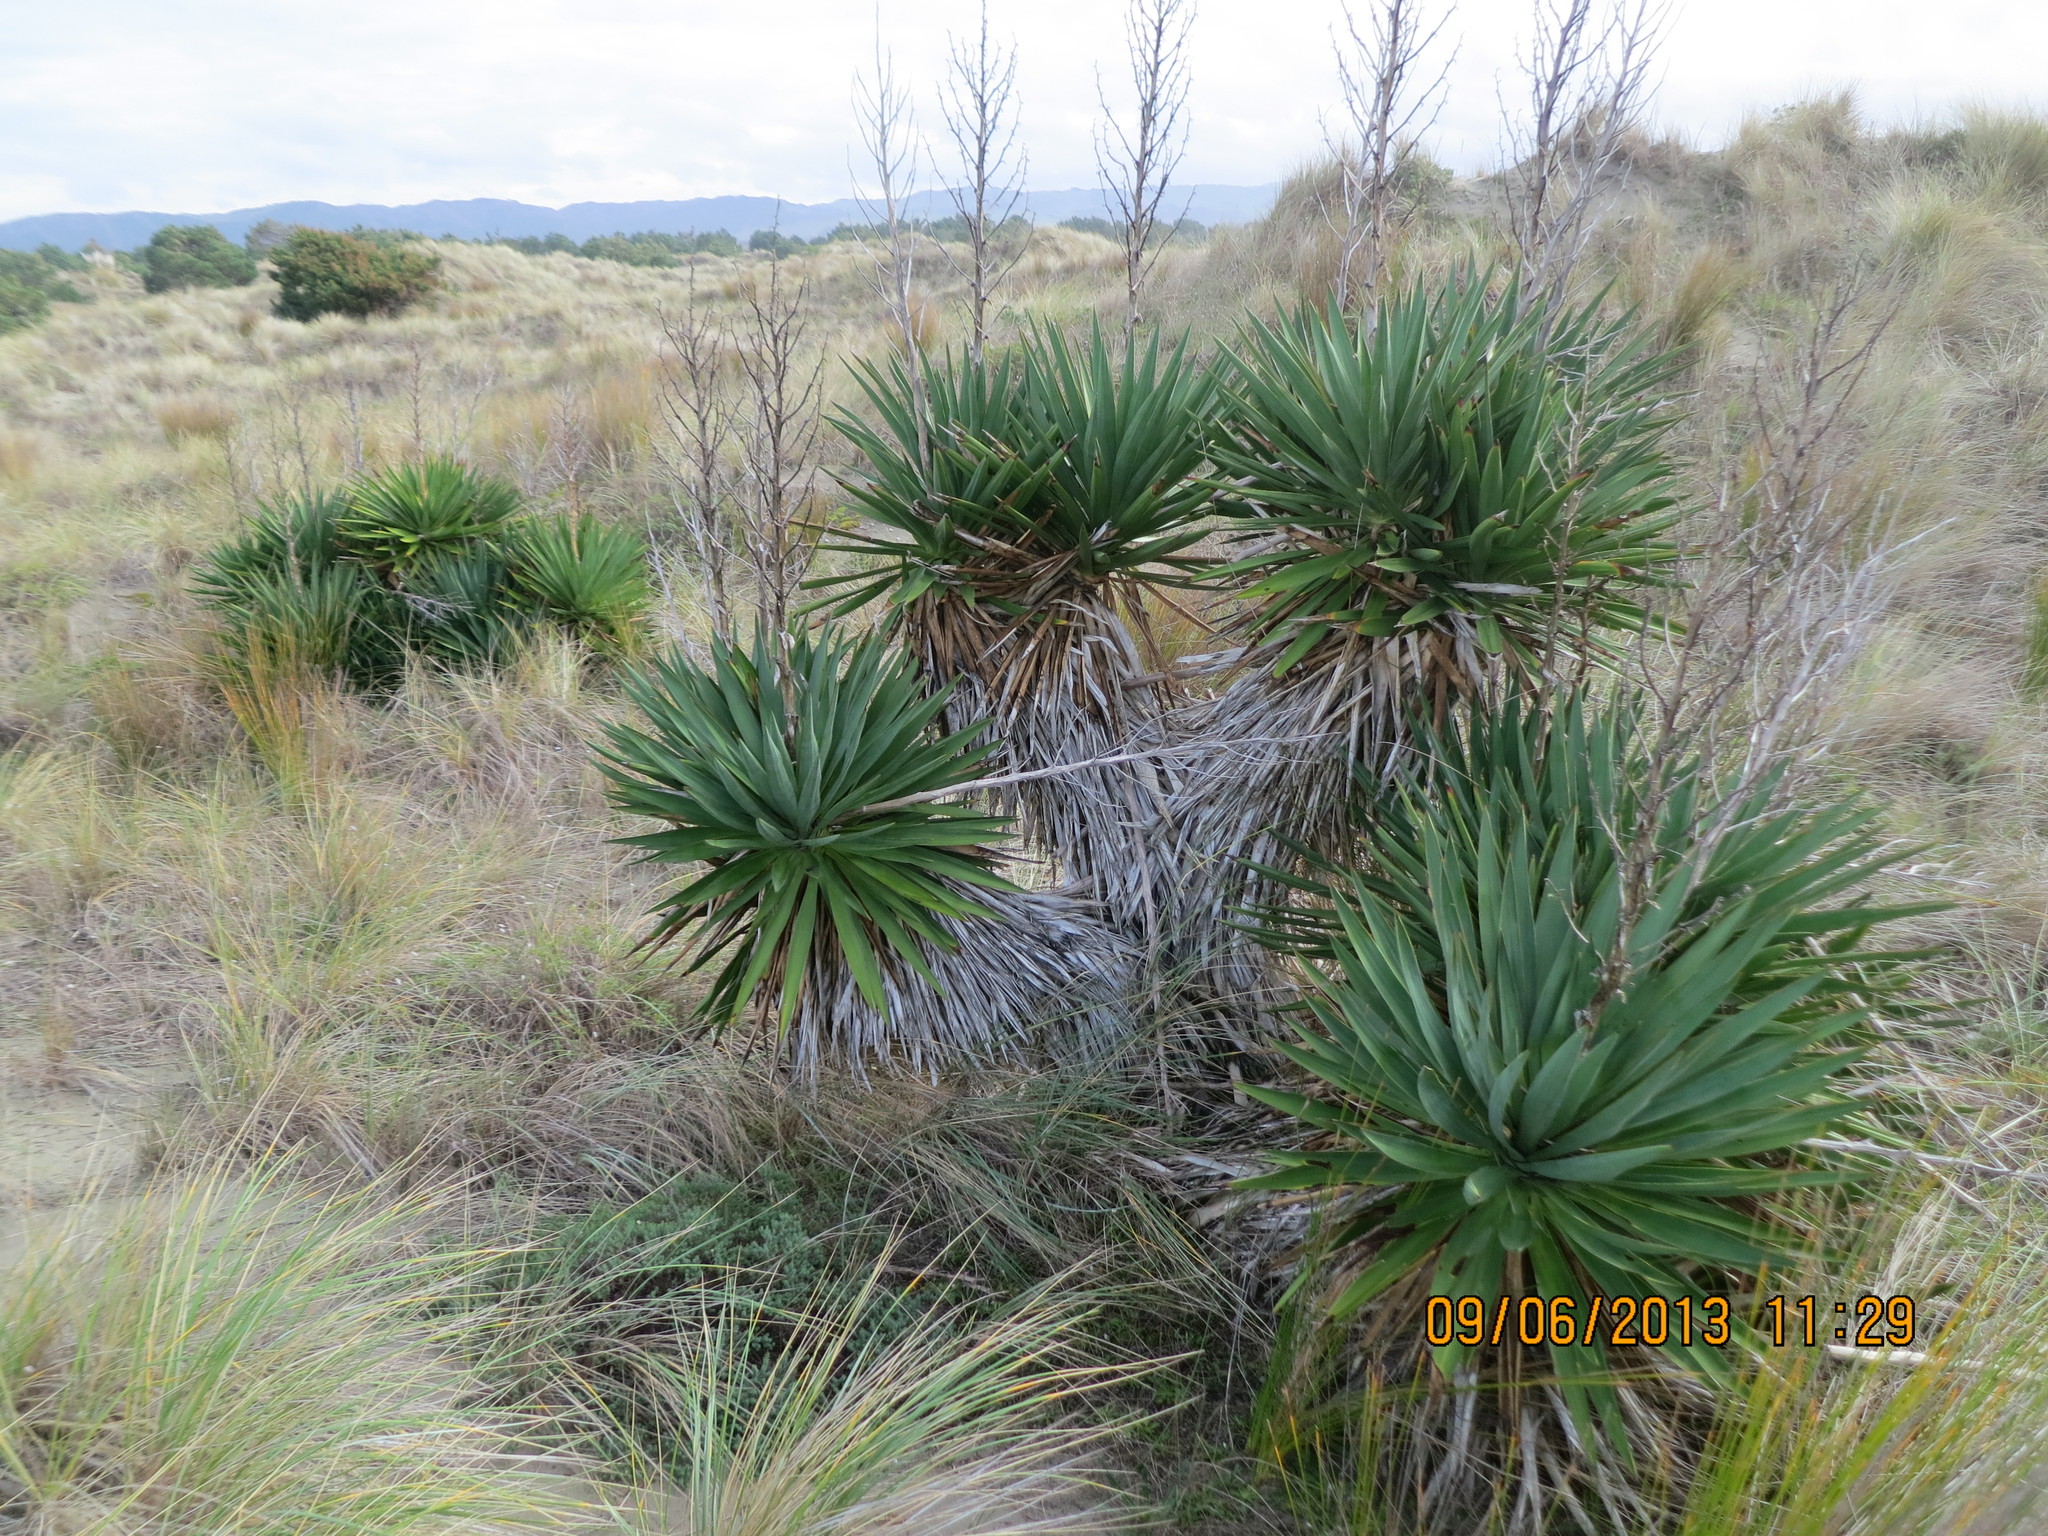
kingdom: Plantae
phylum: Tracheophyta
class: Liliopsida
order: Asparagales
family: Asparagaceae
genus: Yucca
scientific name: Yucca gloriosa
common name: Spanish-dagger
